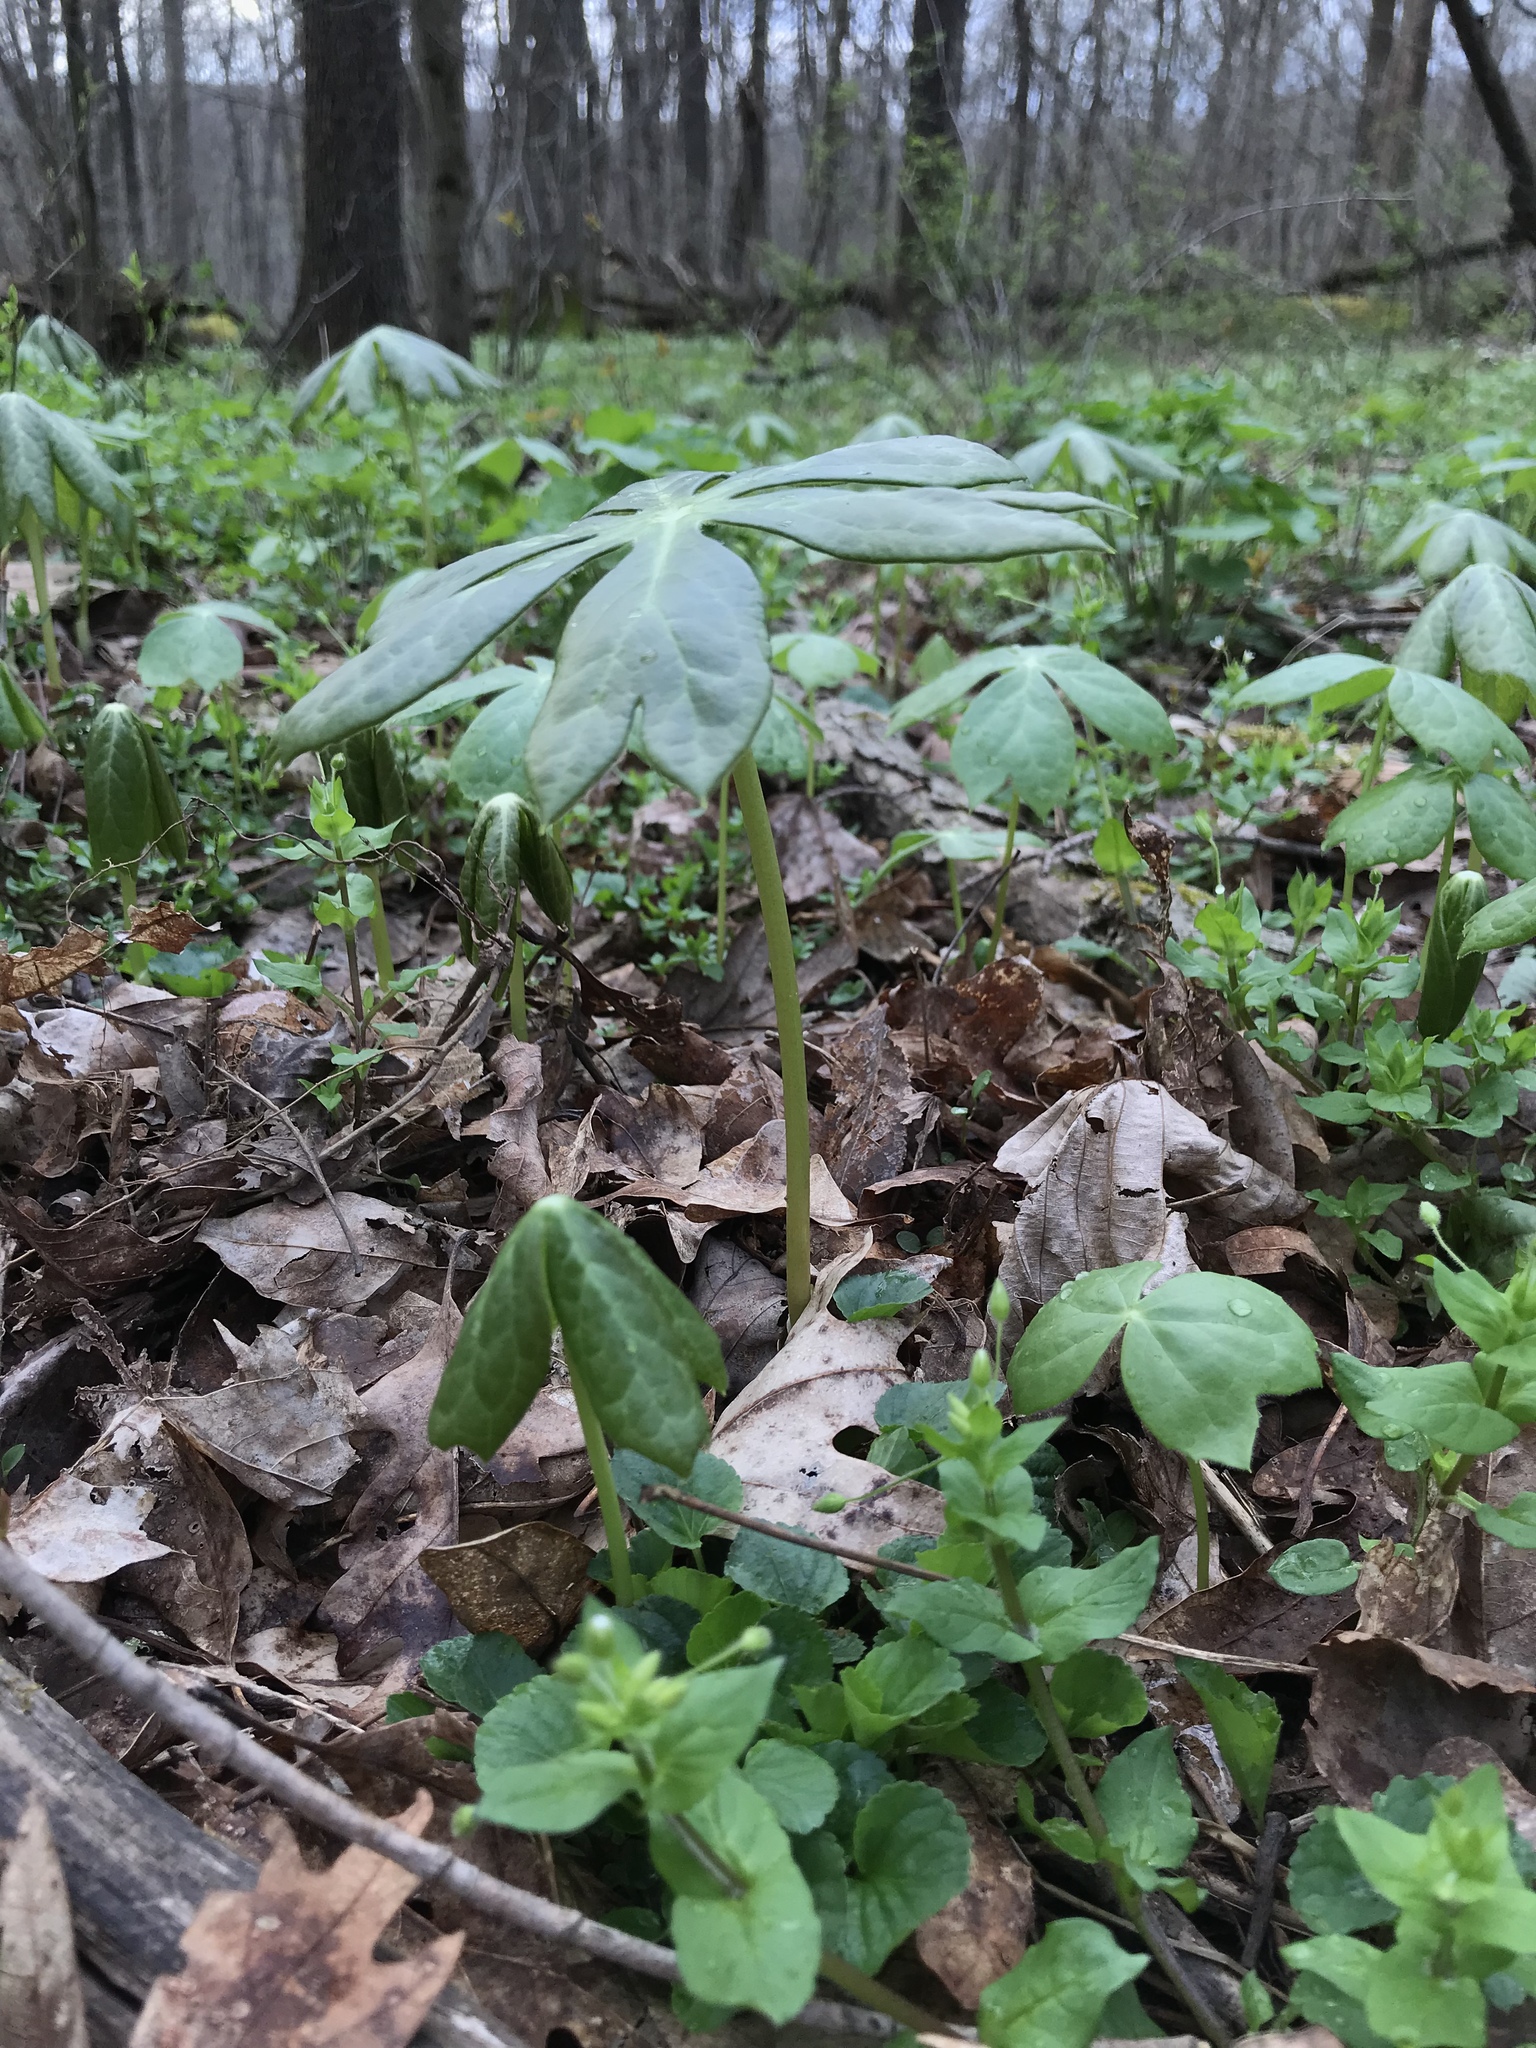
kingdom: Plantae
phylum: Tracheophyta
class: Magnoliopsida
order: Ranunculales
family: Berberidaceae
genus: Podophyllum
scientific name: Podophyllum peltatum
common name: Wild mandrake
